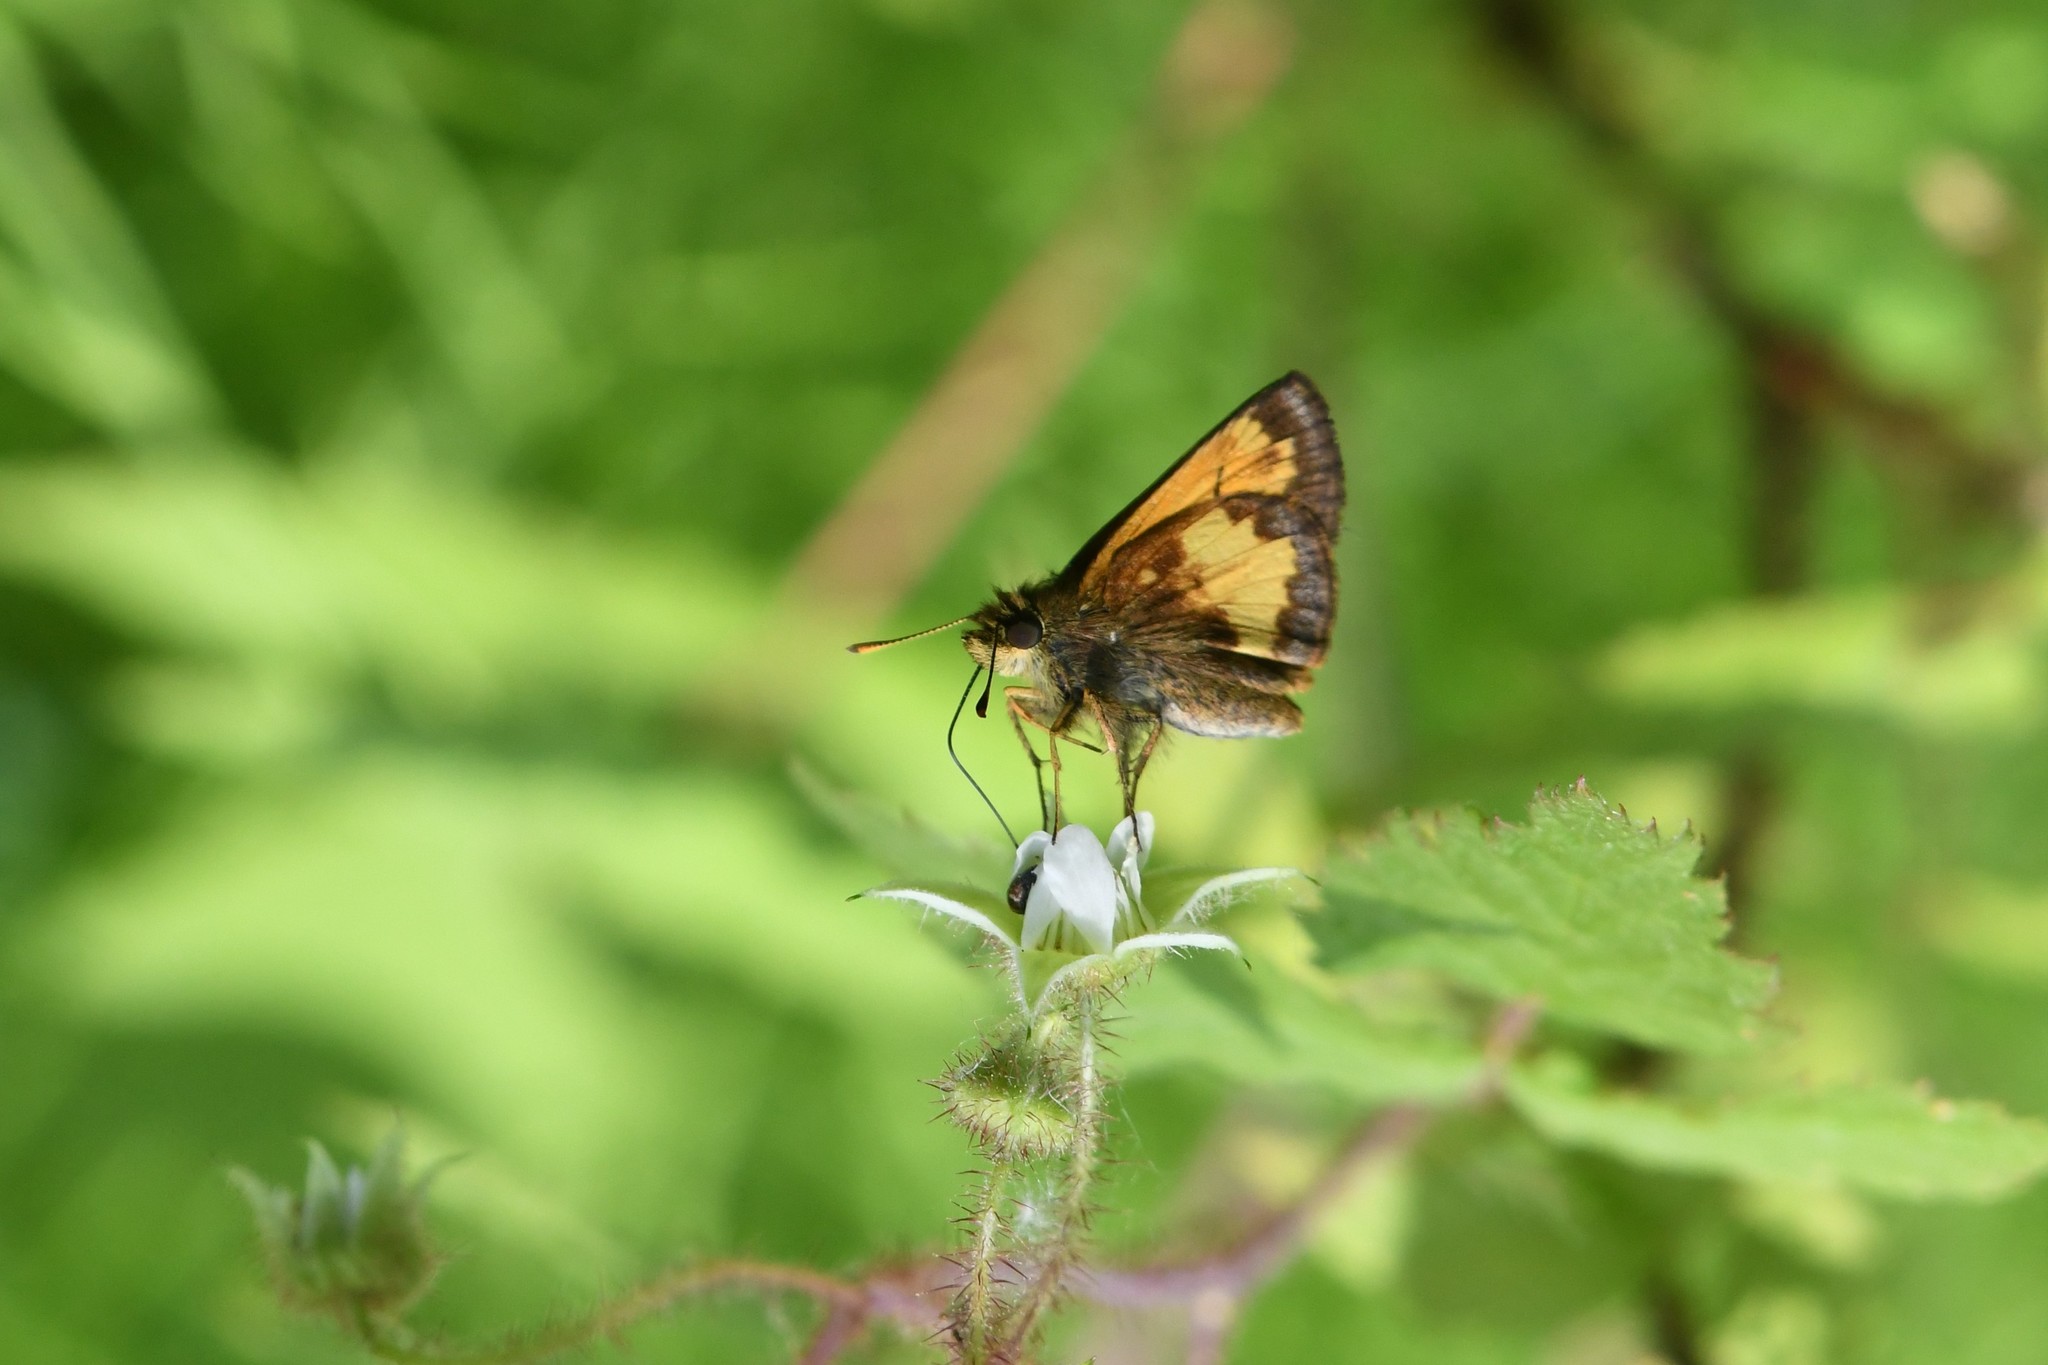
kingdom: Animalia
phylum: Arthropoda
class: Insecta
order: Lepidoptera
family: Hesperiidae
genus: Lon
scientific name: Lon hobomok
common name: Hobomok skipper
